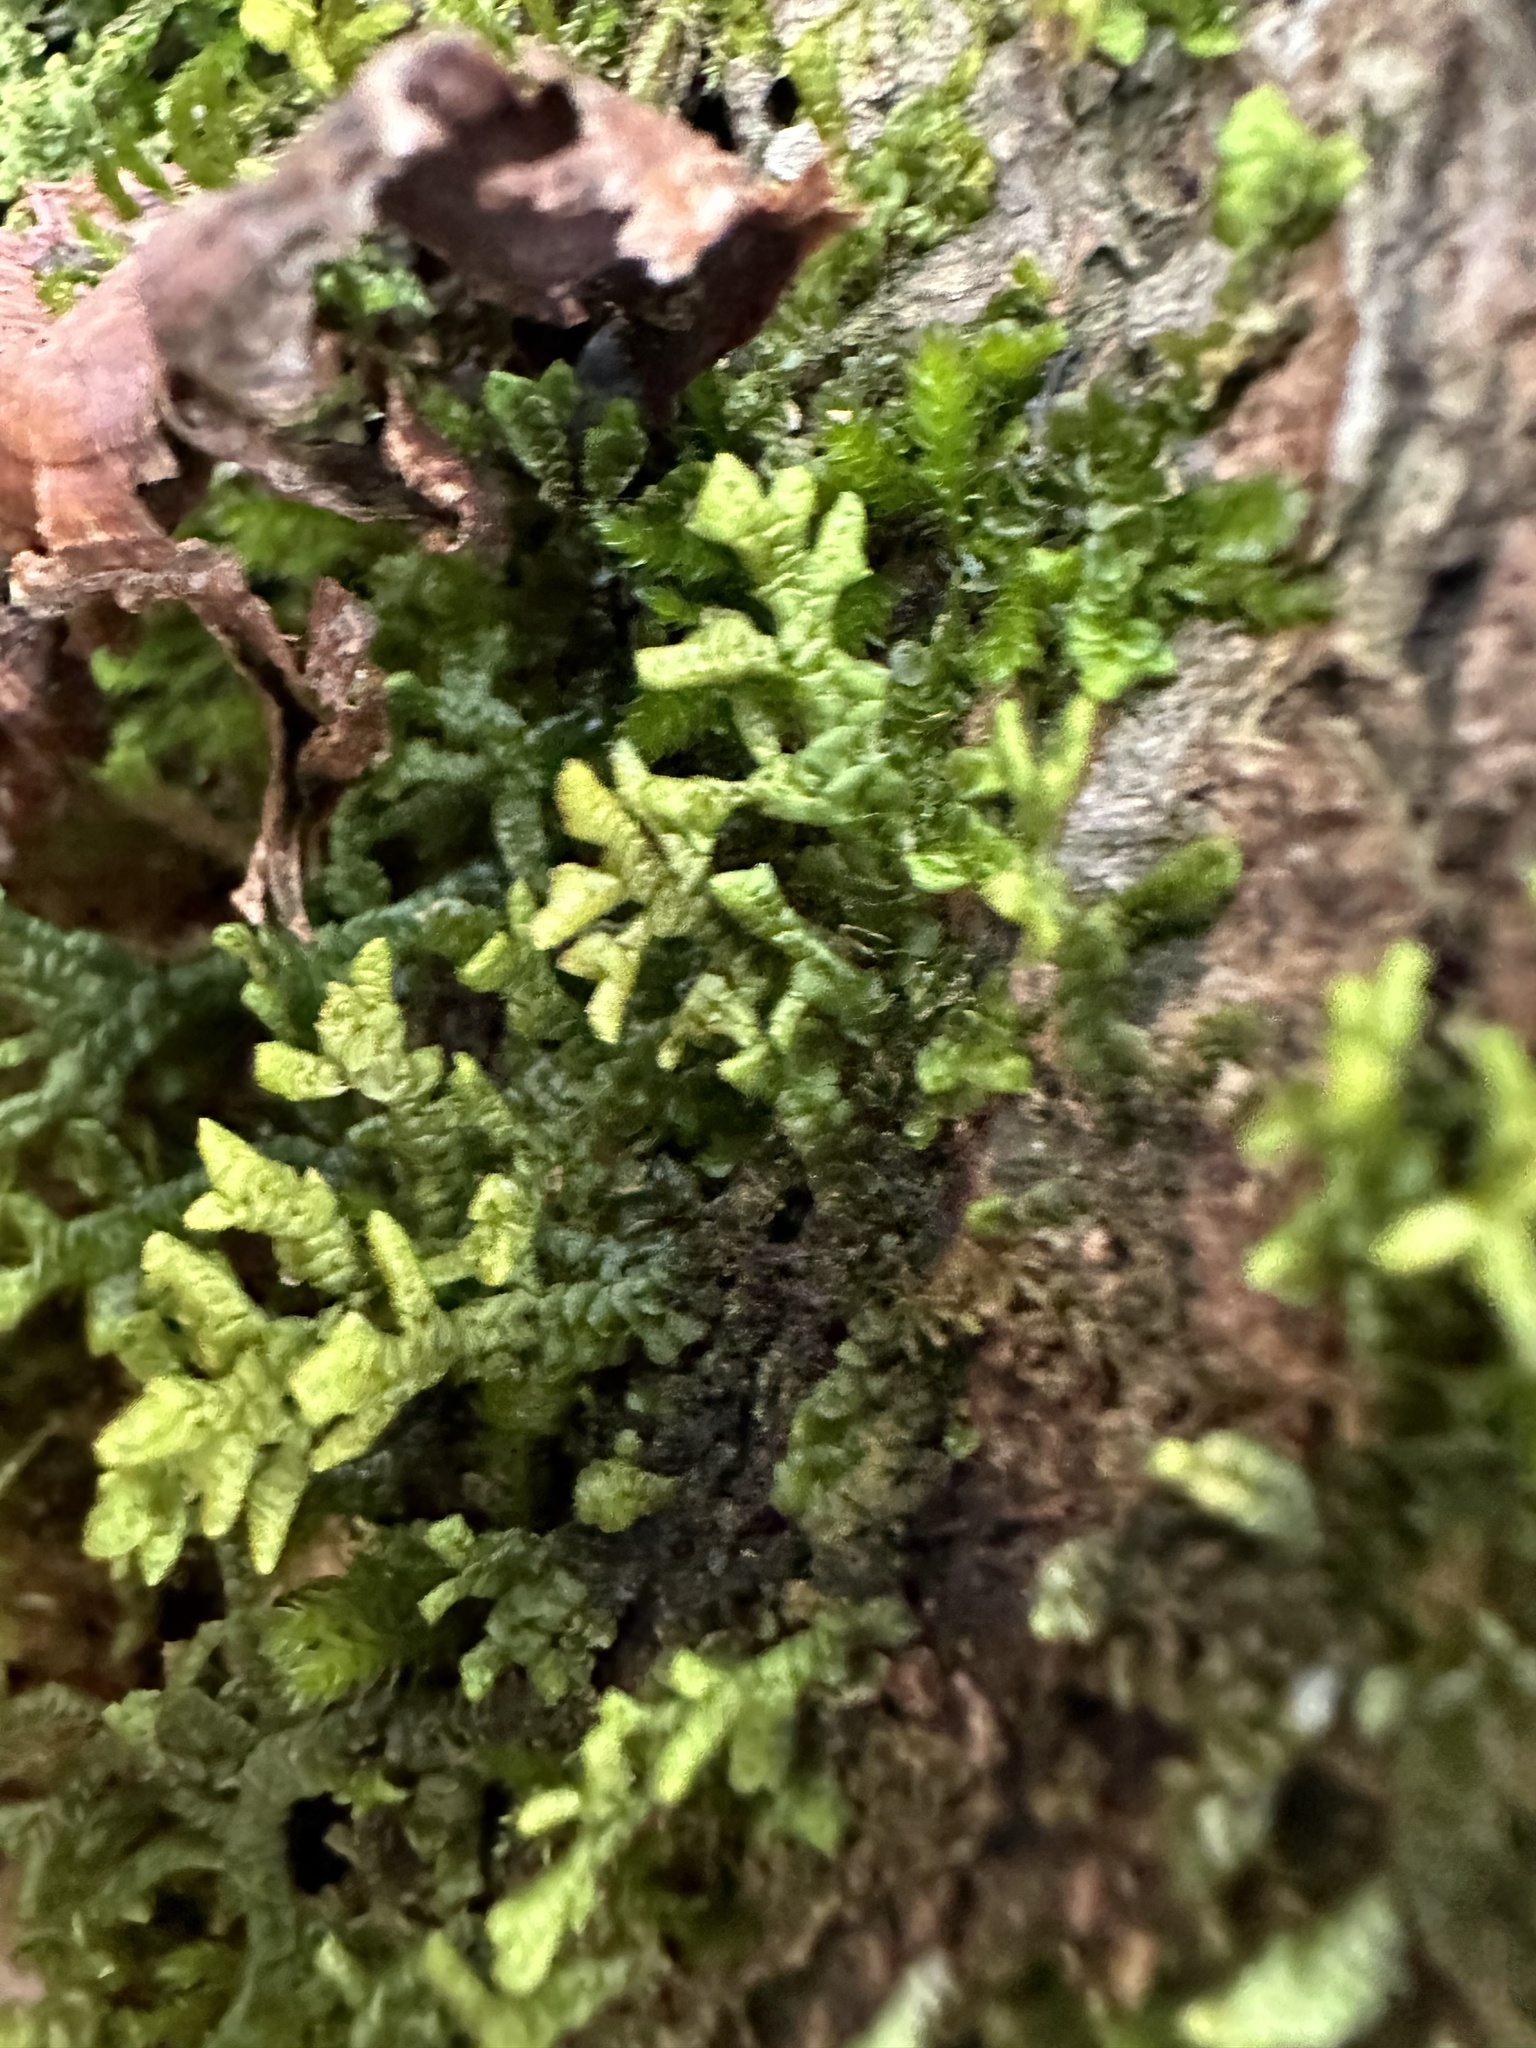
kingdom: Plantae
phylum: Marchantiophyta
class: Jungermanniopsida
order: Porellales
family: Porellaceae
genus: Porella
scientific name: Porella platyphylla
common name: Wall scalewort
